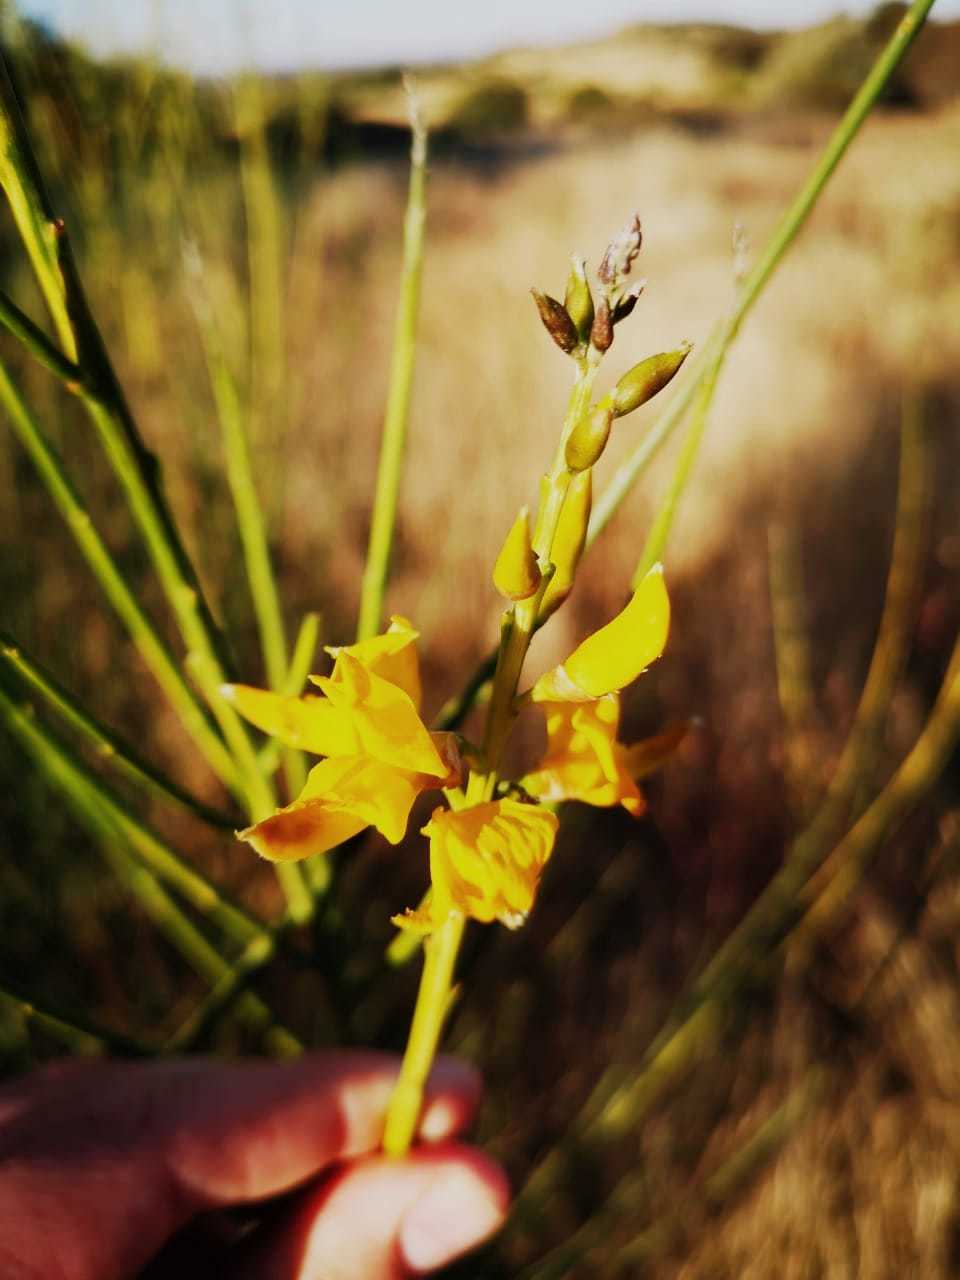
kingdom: Plantae
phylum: Tracheophyta
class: Magnoliopsida
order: Fabales
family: Fabaceae
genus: Spartium
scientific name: Spartium junceum
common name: Spanish broom
